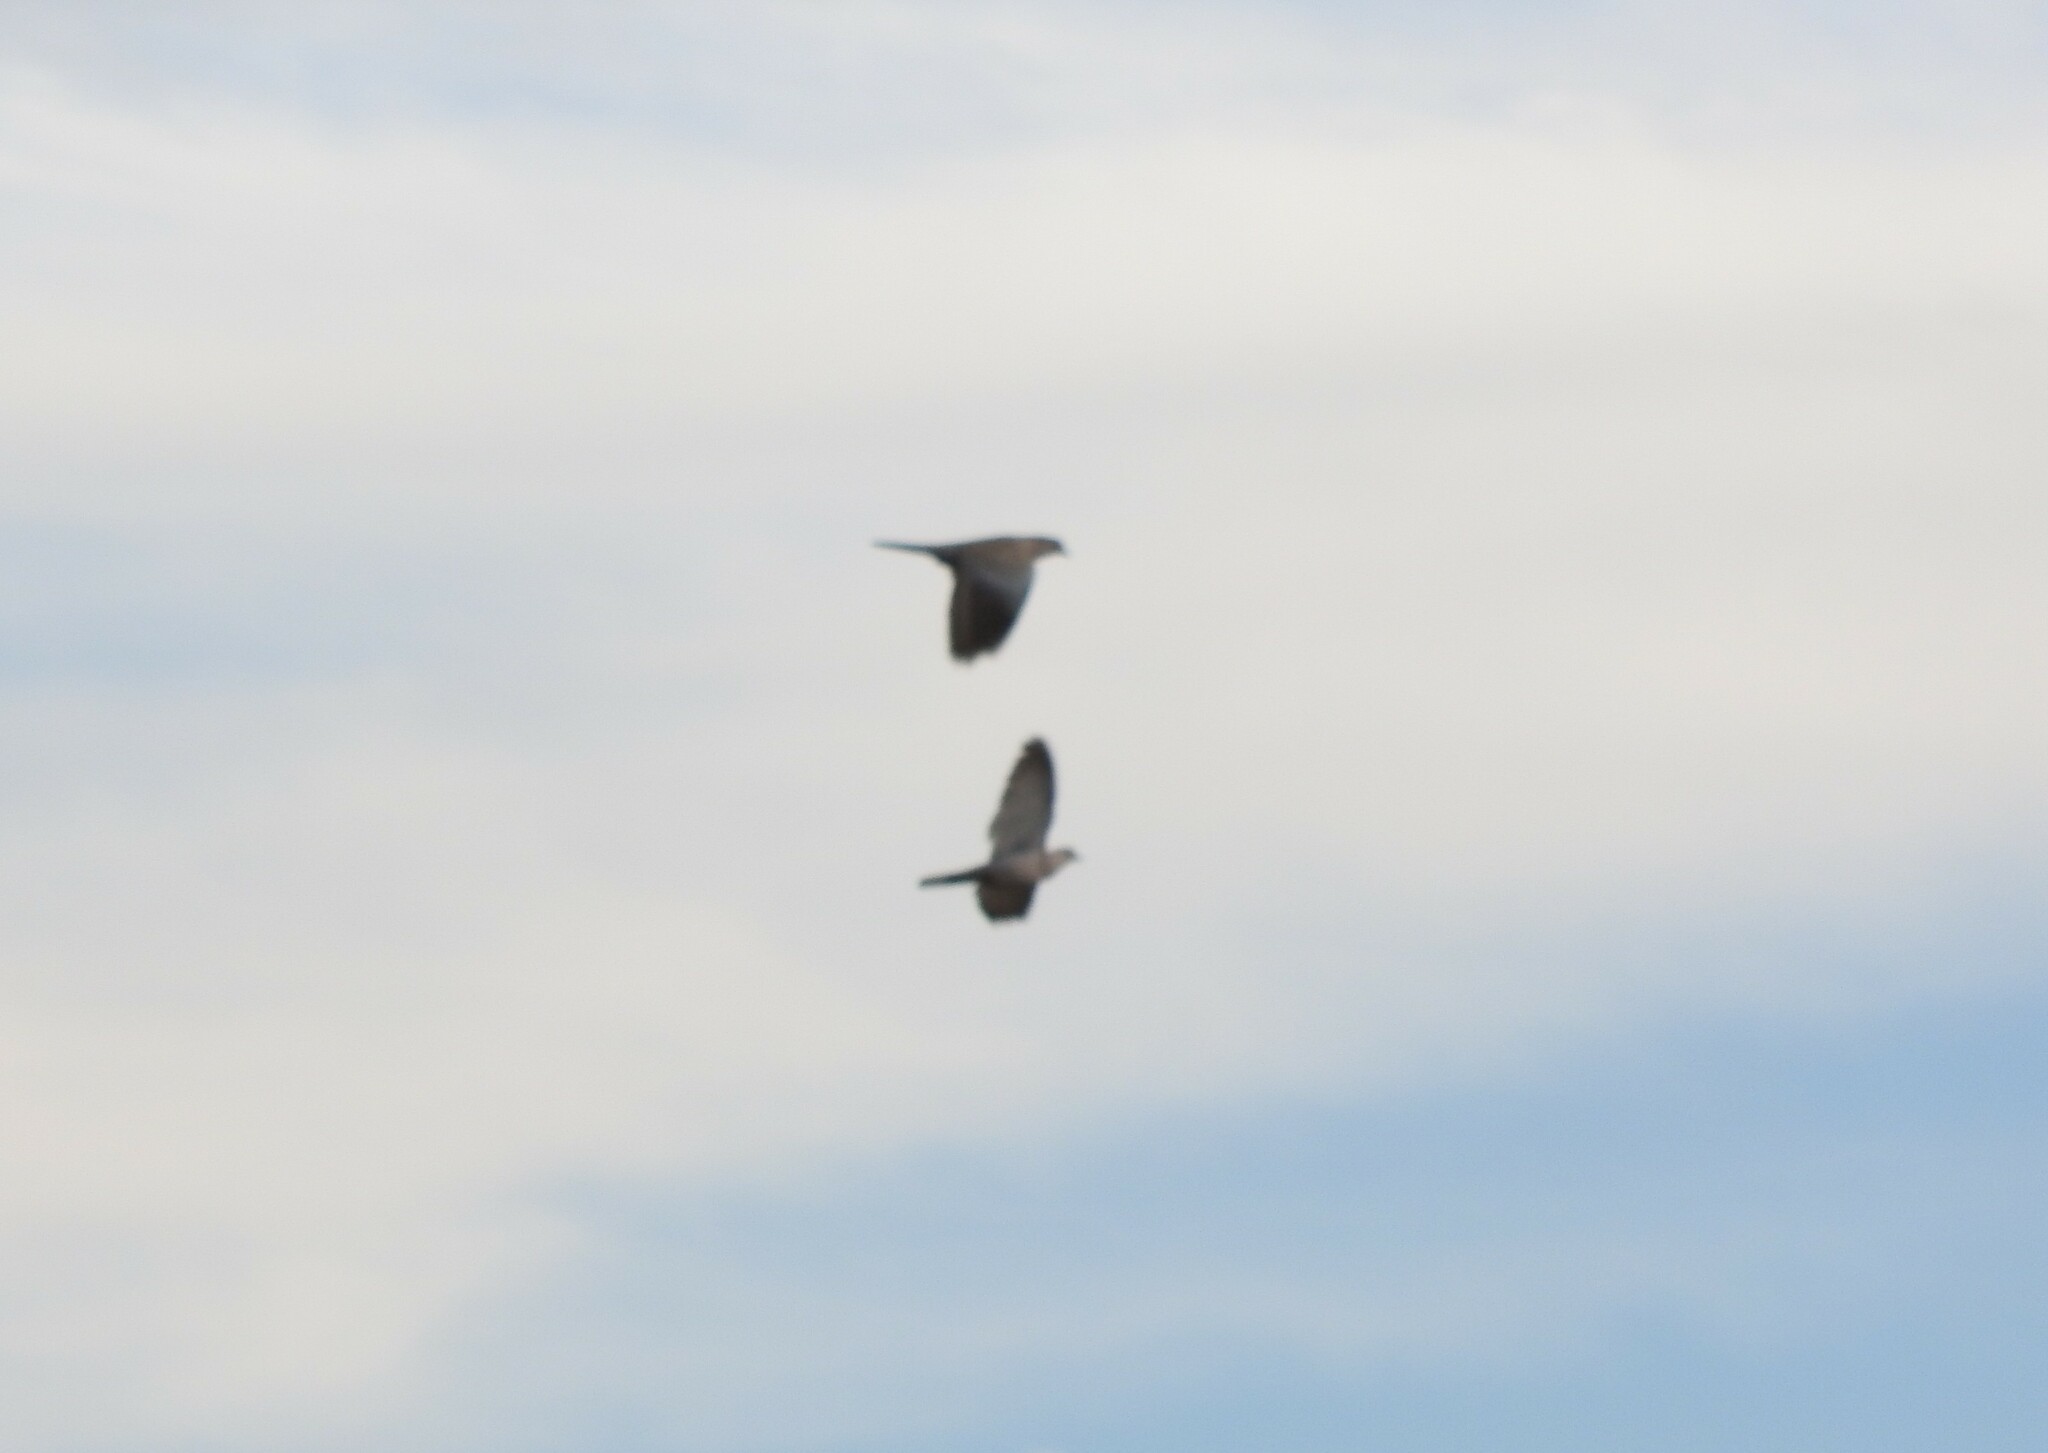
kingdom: Animalia
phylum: Chordata
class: Aves
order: Columbiformes
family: Columbidae
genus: Streptopelia
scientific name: Streptopelia decaocto
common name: Eurasian collared dove
